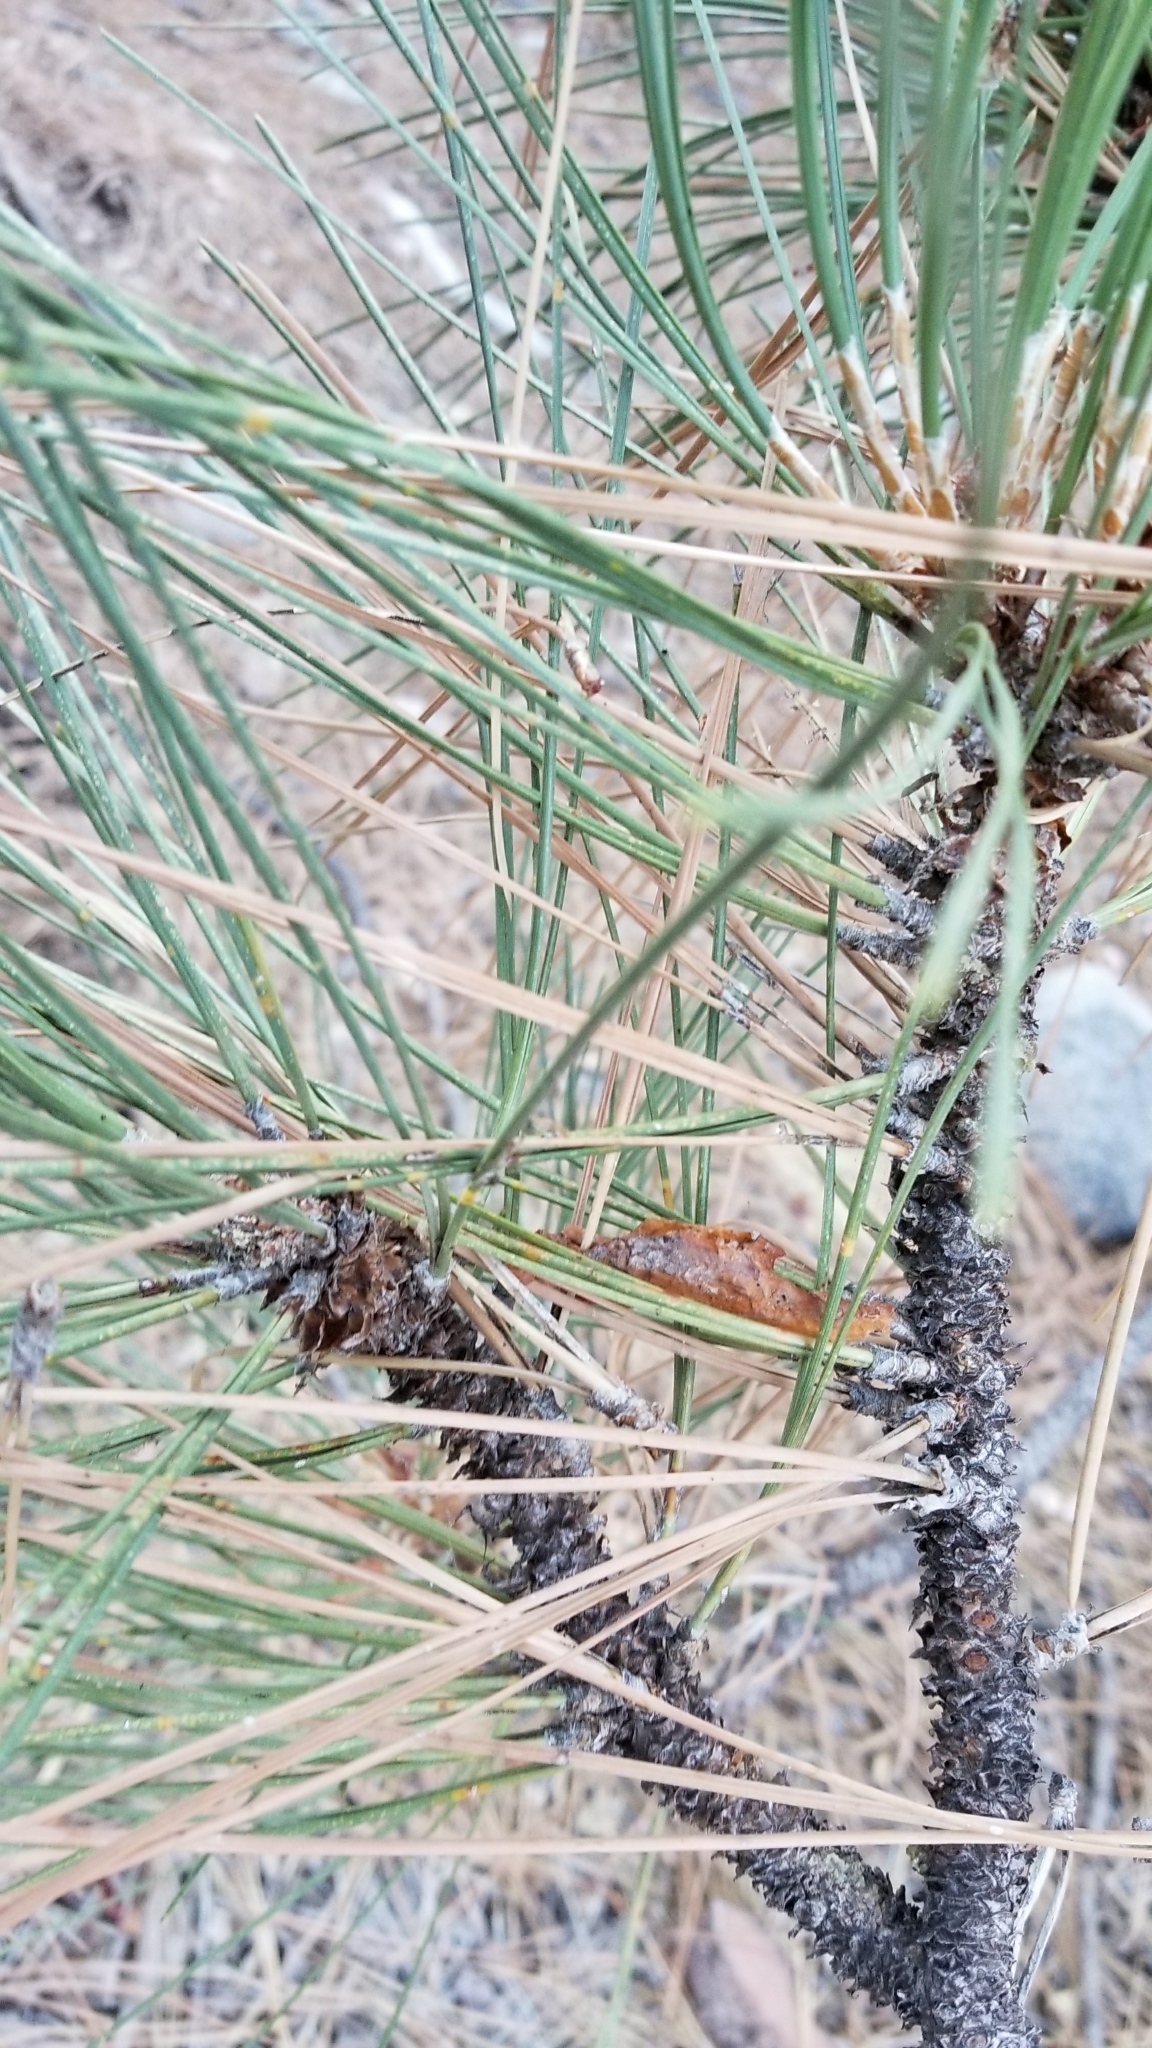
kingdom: Plantae
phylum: Tracheophyta
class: Pinopsida
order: Pinales
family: Pinaceae
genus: Pinus
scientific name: Pinus coulteri
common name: Coulter pine
